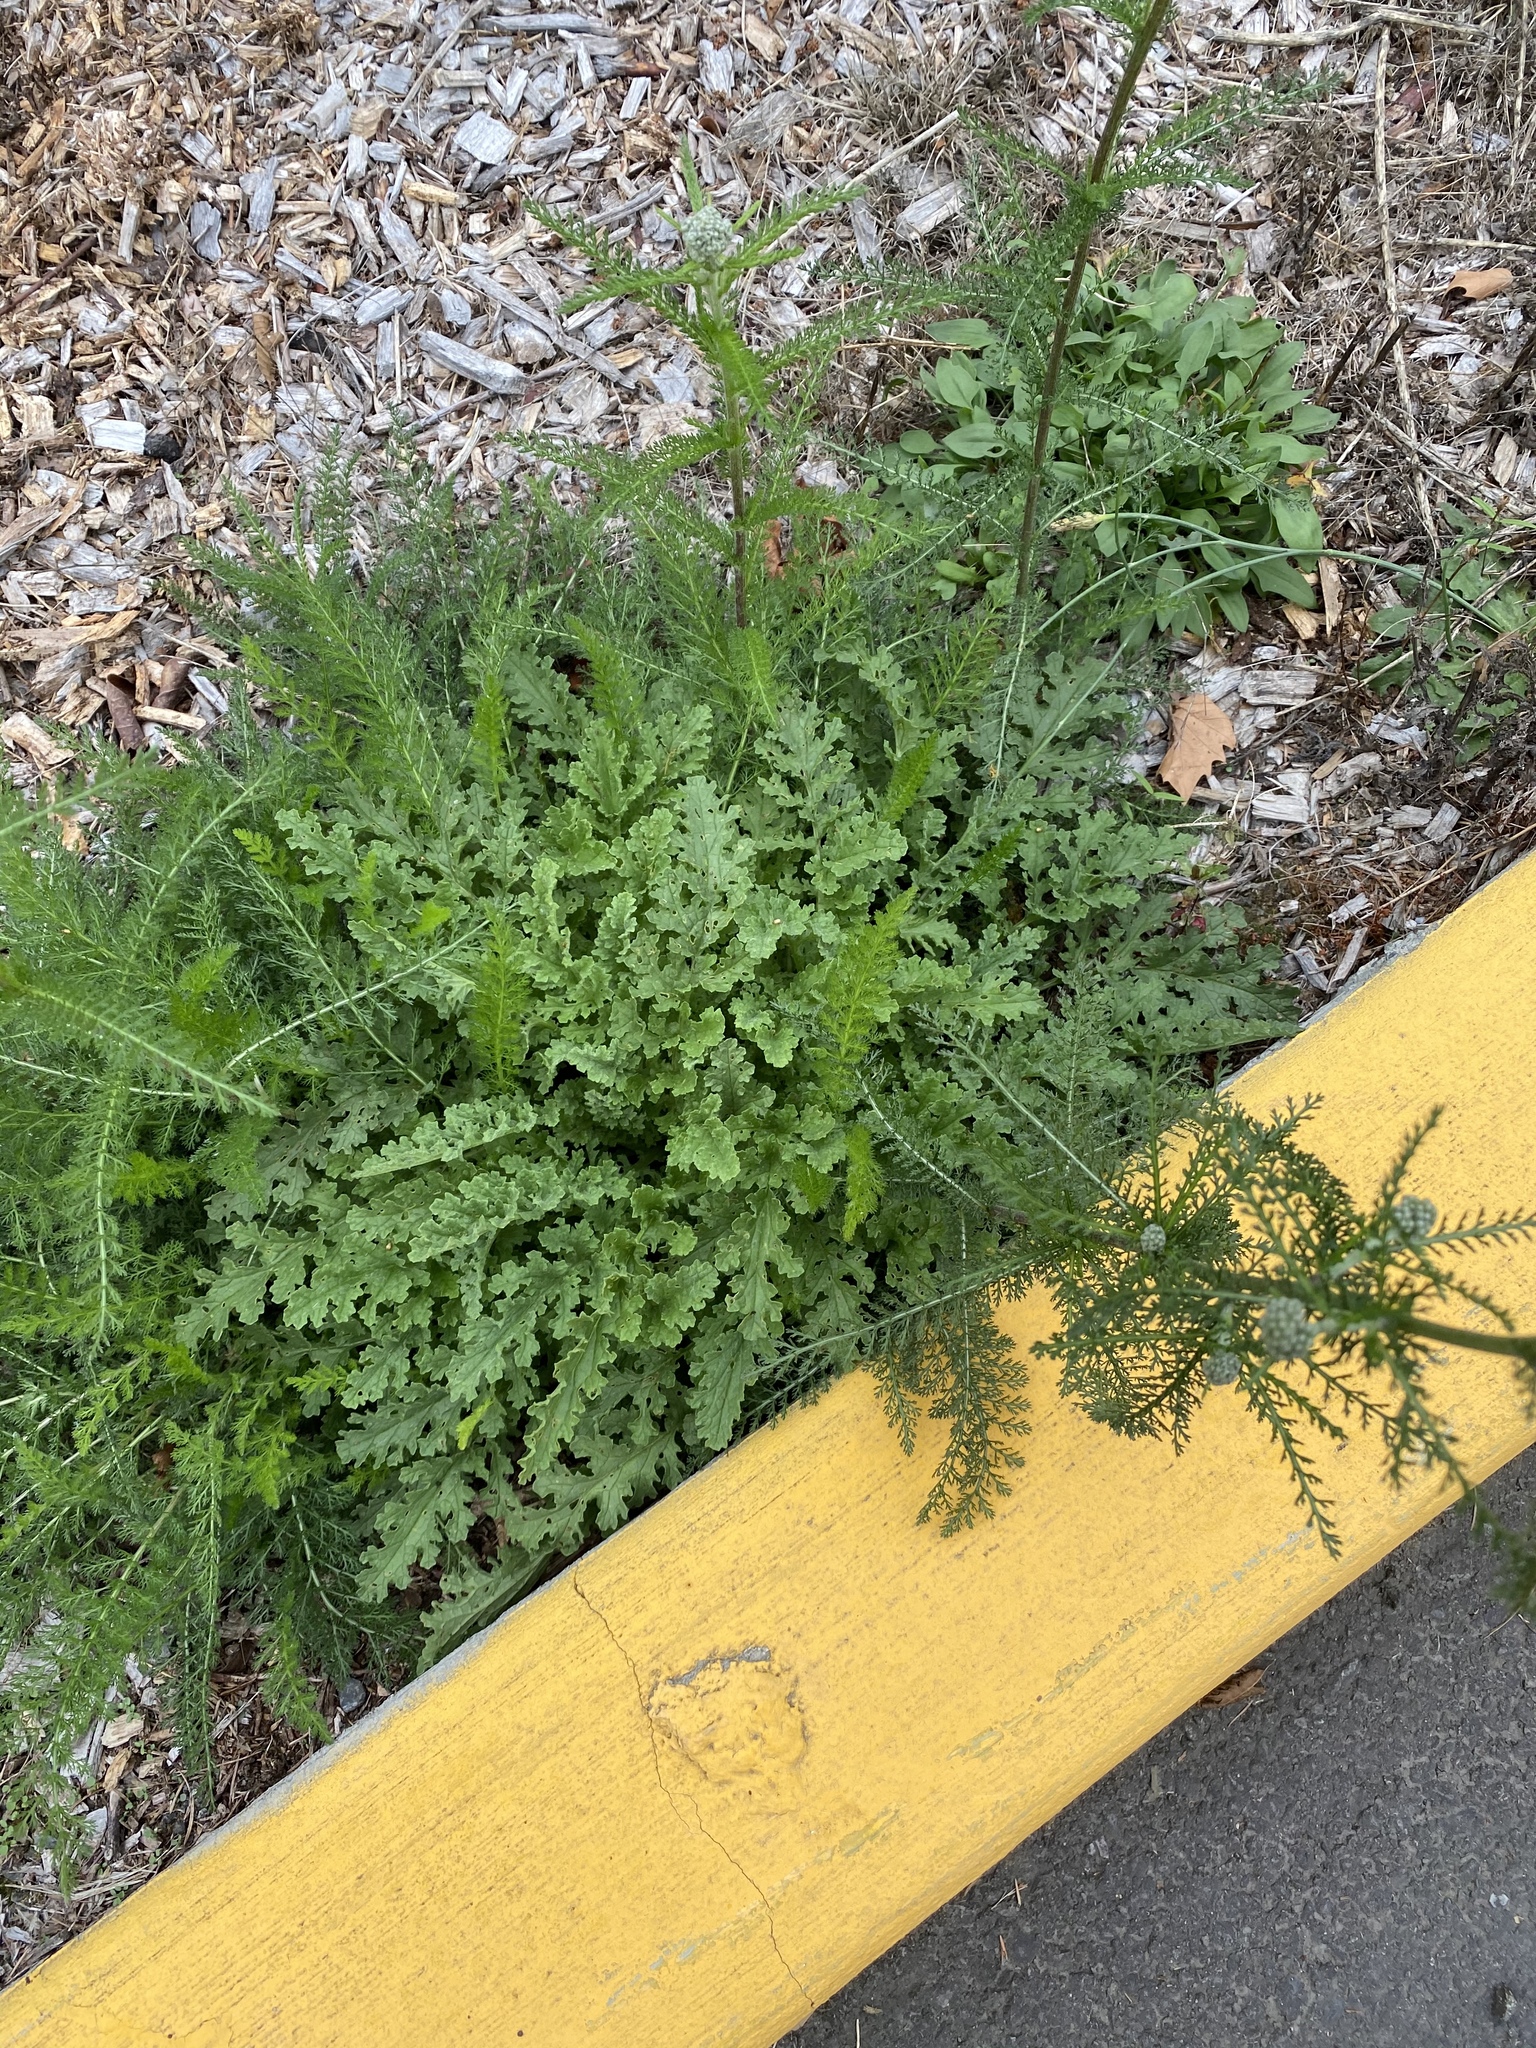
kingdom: Plantae
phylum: Tracheophyta
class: Magnoliopsida
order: Asterales
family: Asteraceae
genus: Achillea
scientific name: Achillea millefolium
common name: Yarrow
